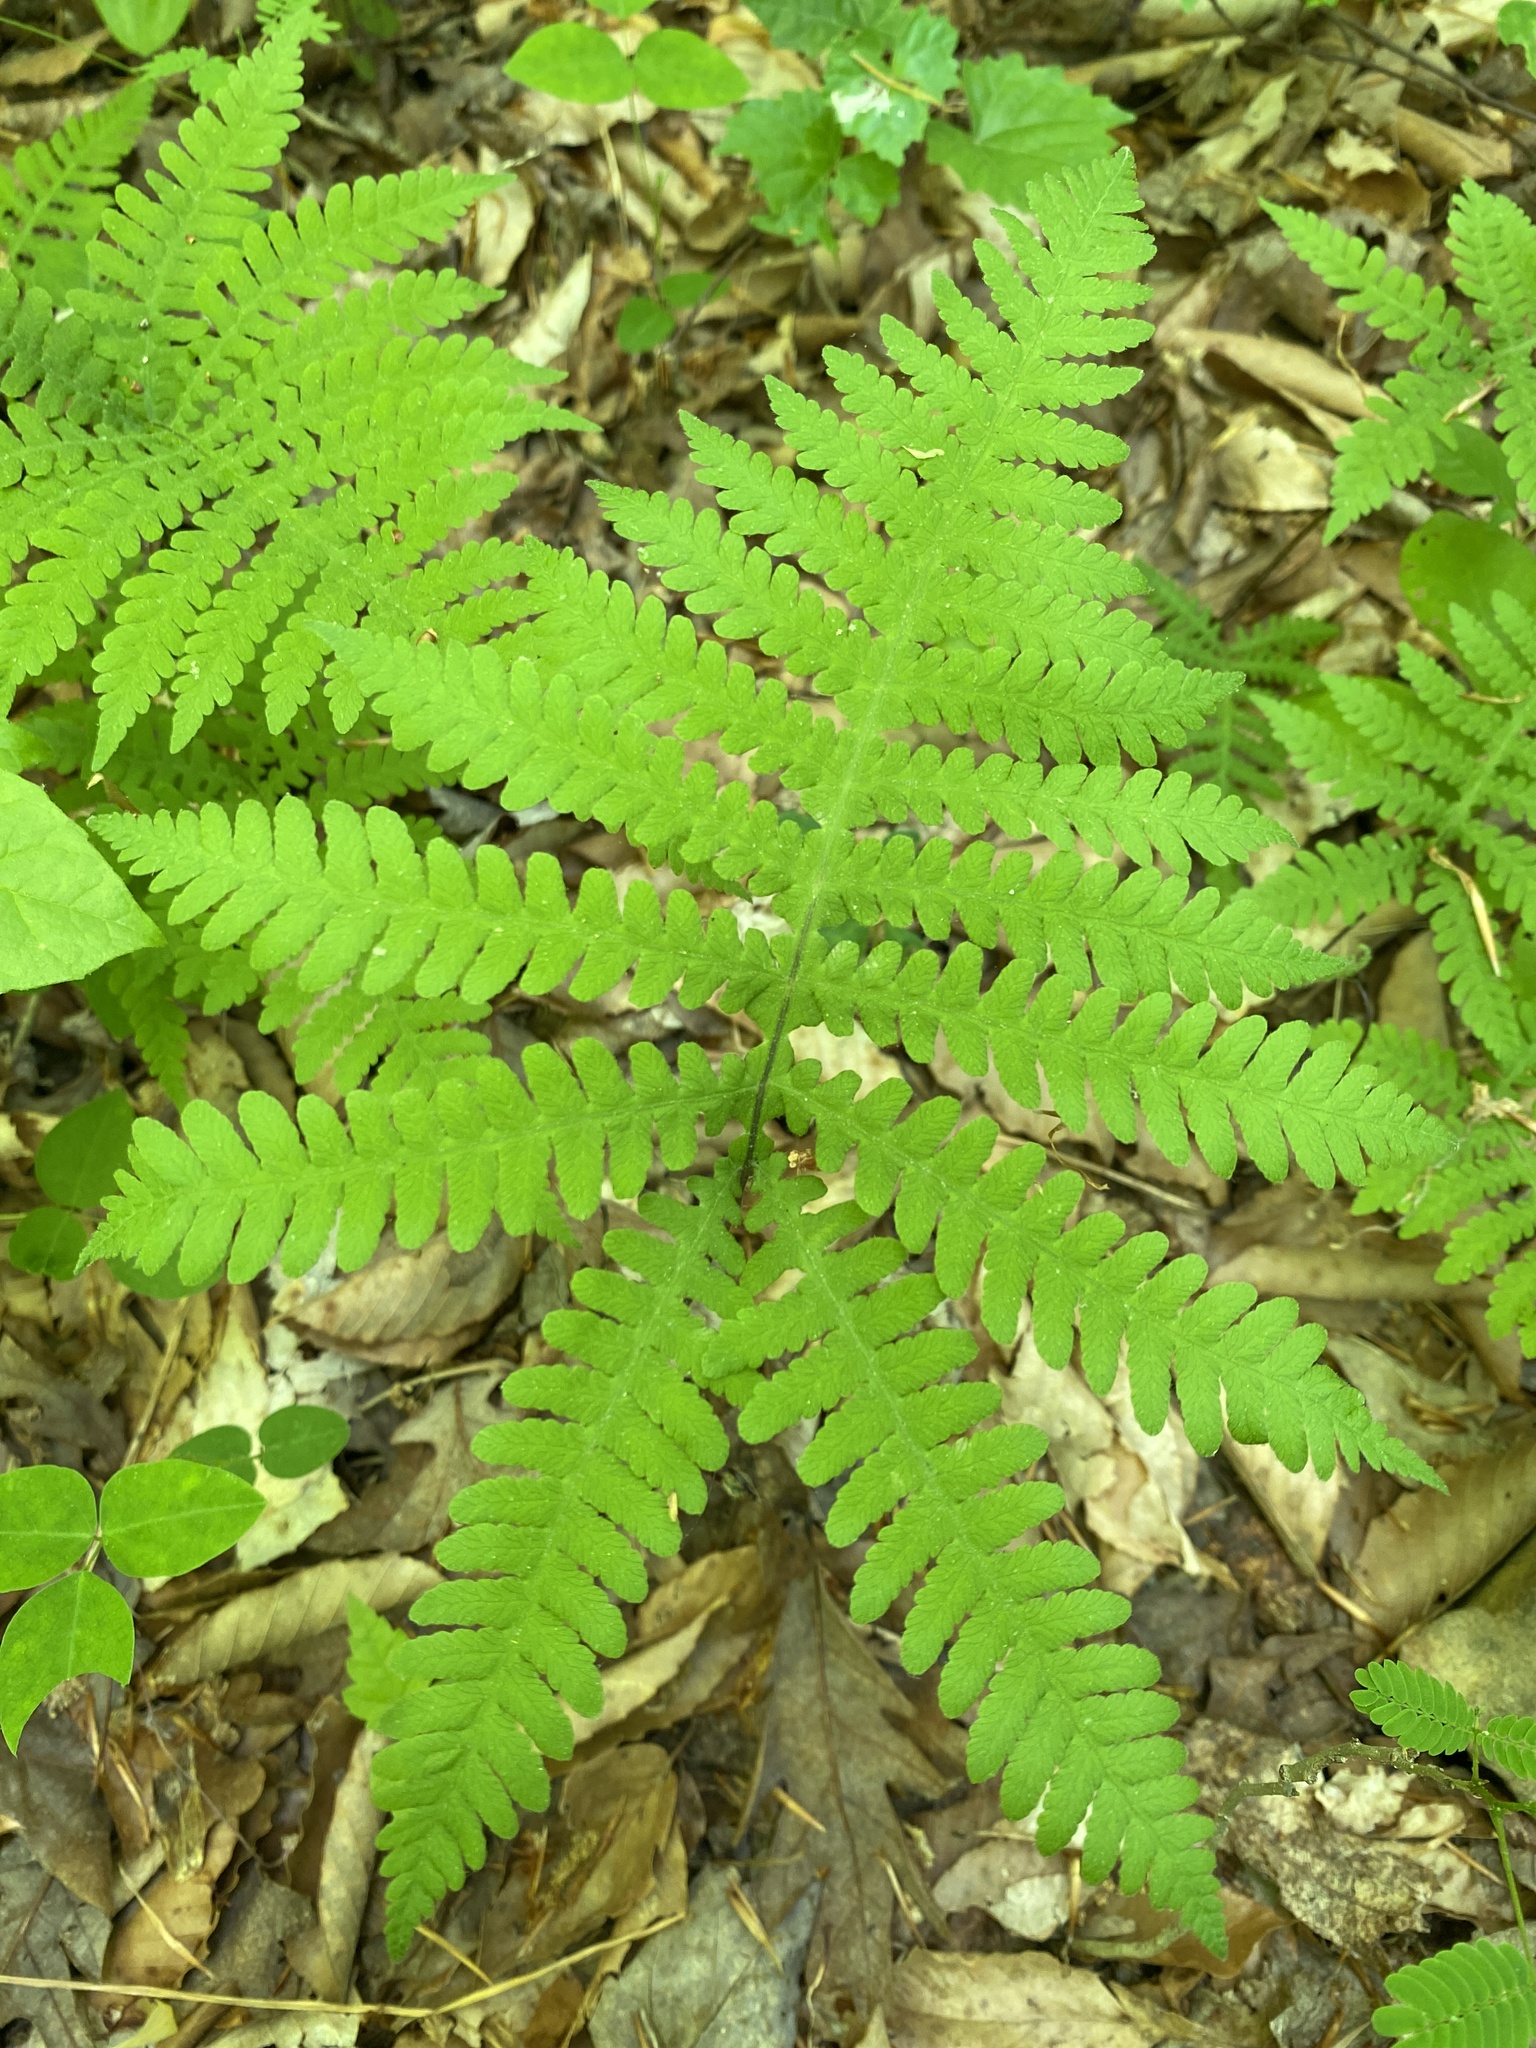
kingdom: Plantae
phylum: Tracheophyta
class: Polypodiopsida
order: Polypodiales
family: Thelypteridaceae
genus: Phegopteris
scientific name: Phegopteris hexagonoptera
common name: Broad beech fern
